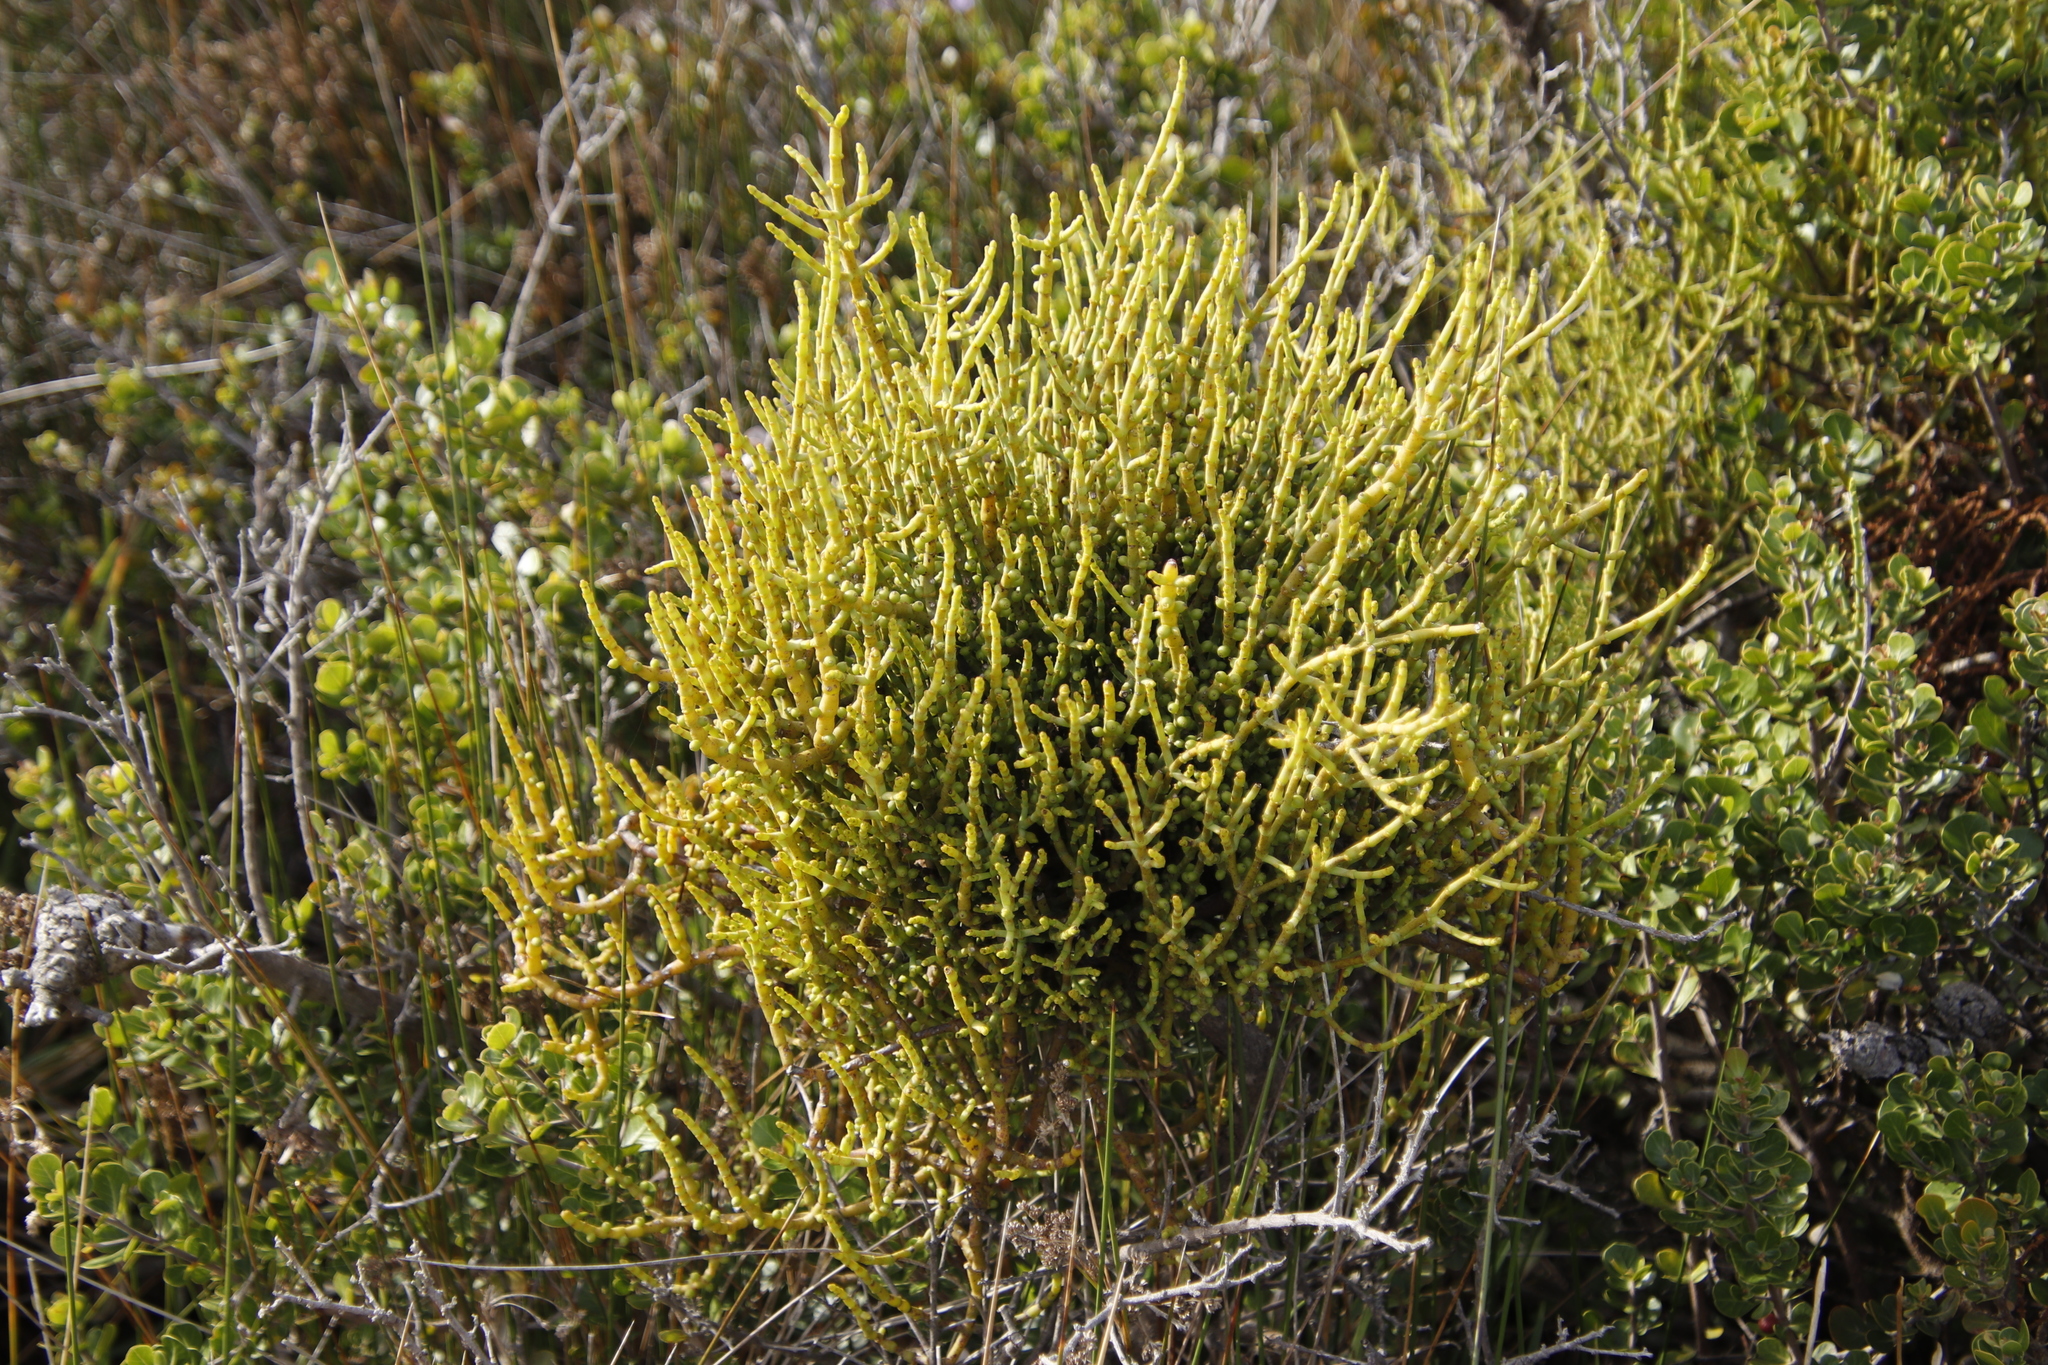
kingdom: Plantae
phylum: Tracheophyta
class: Magnoliopsida
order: Santalales
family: Viscaceae
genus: Viscum
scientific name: Viscum capense
